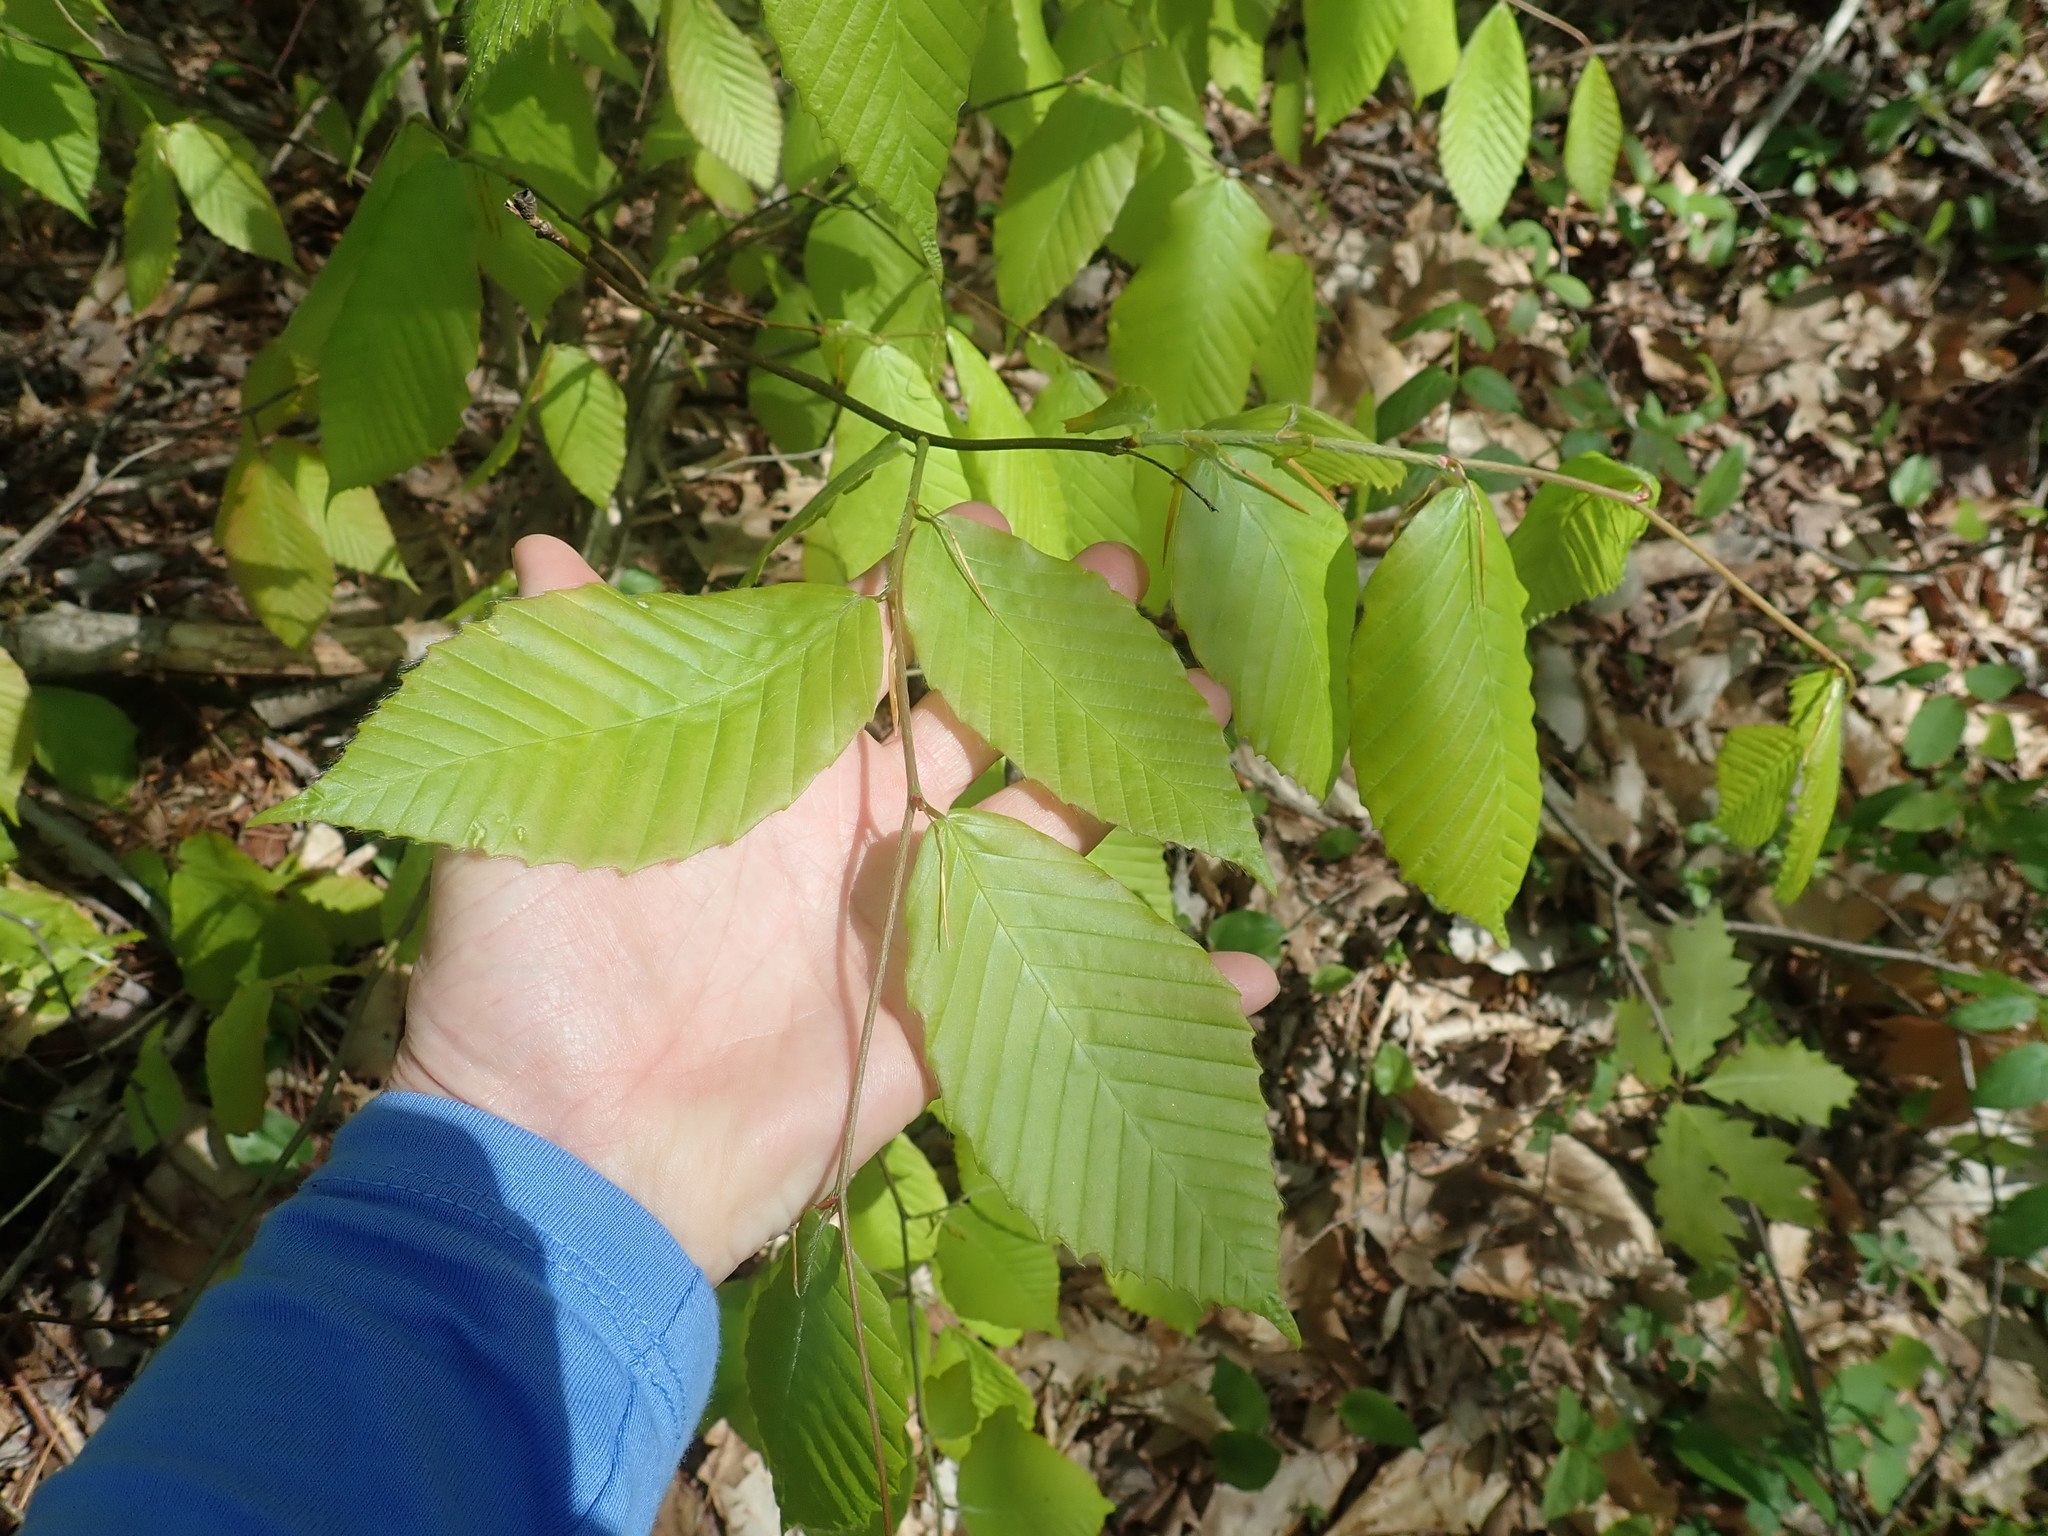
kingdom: Plantae
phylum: Tracheophyta
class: Magnoliopsida
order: Fagales
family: Fagaceae
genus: Fagus
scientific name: Fagus grandifolia
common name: American beech
